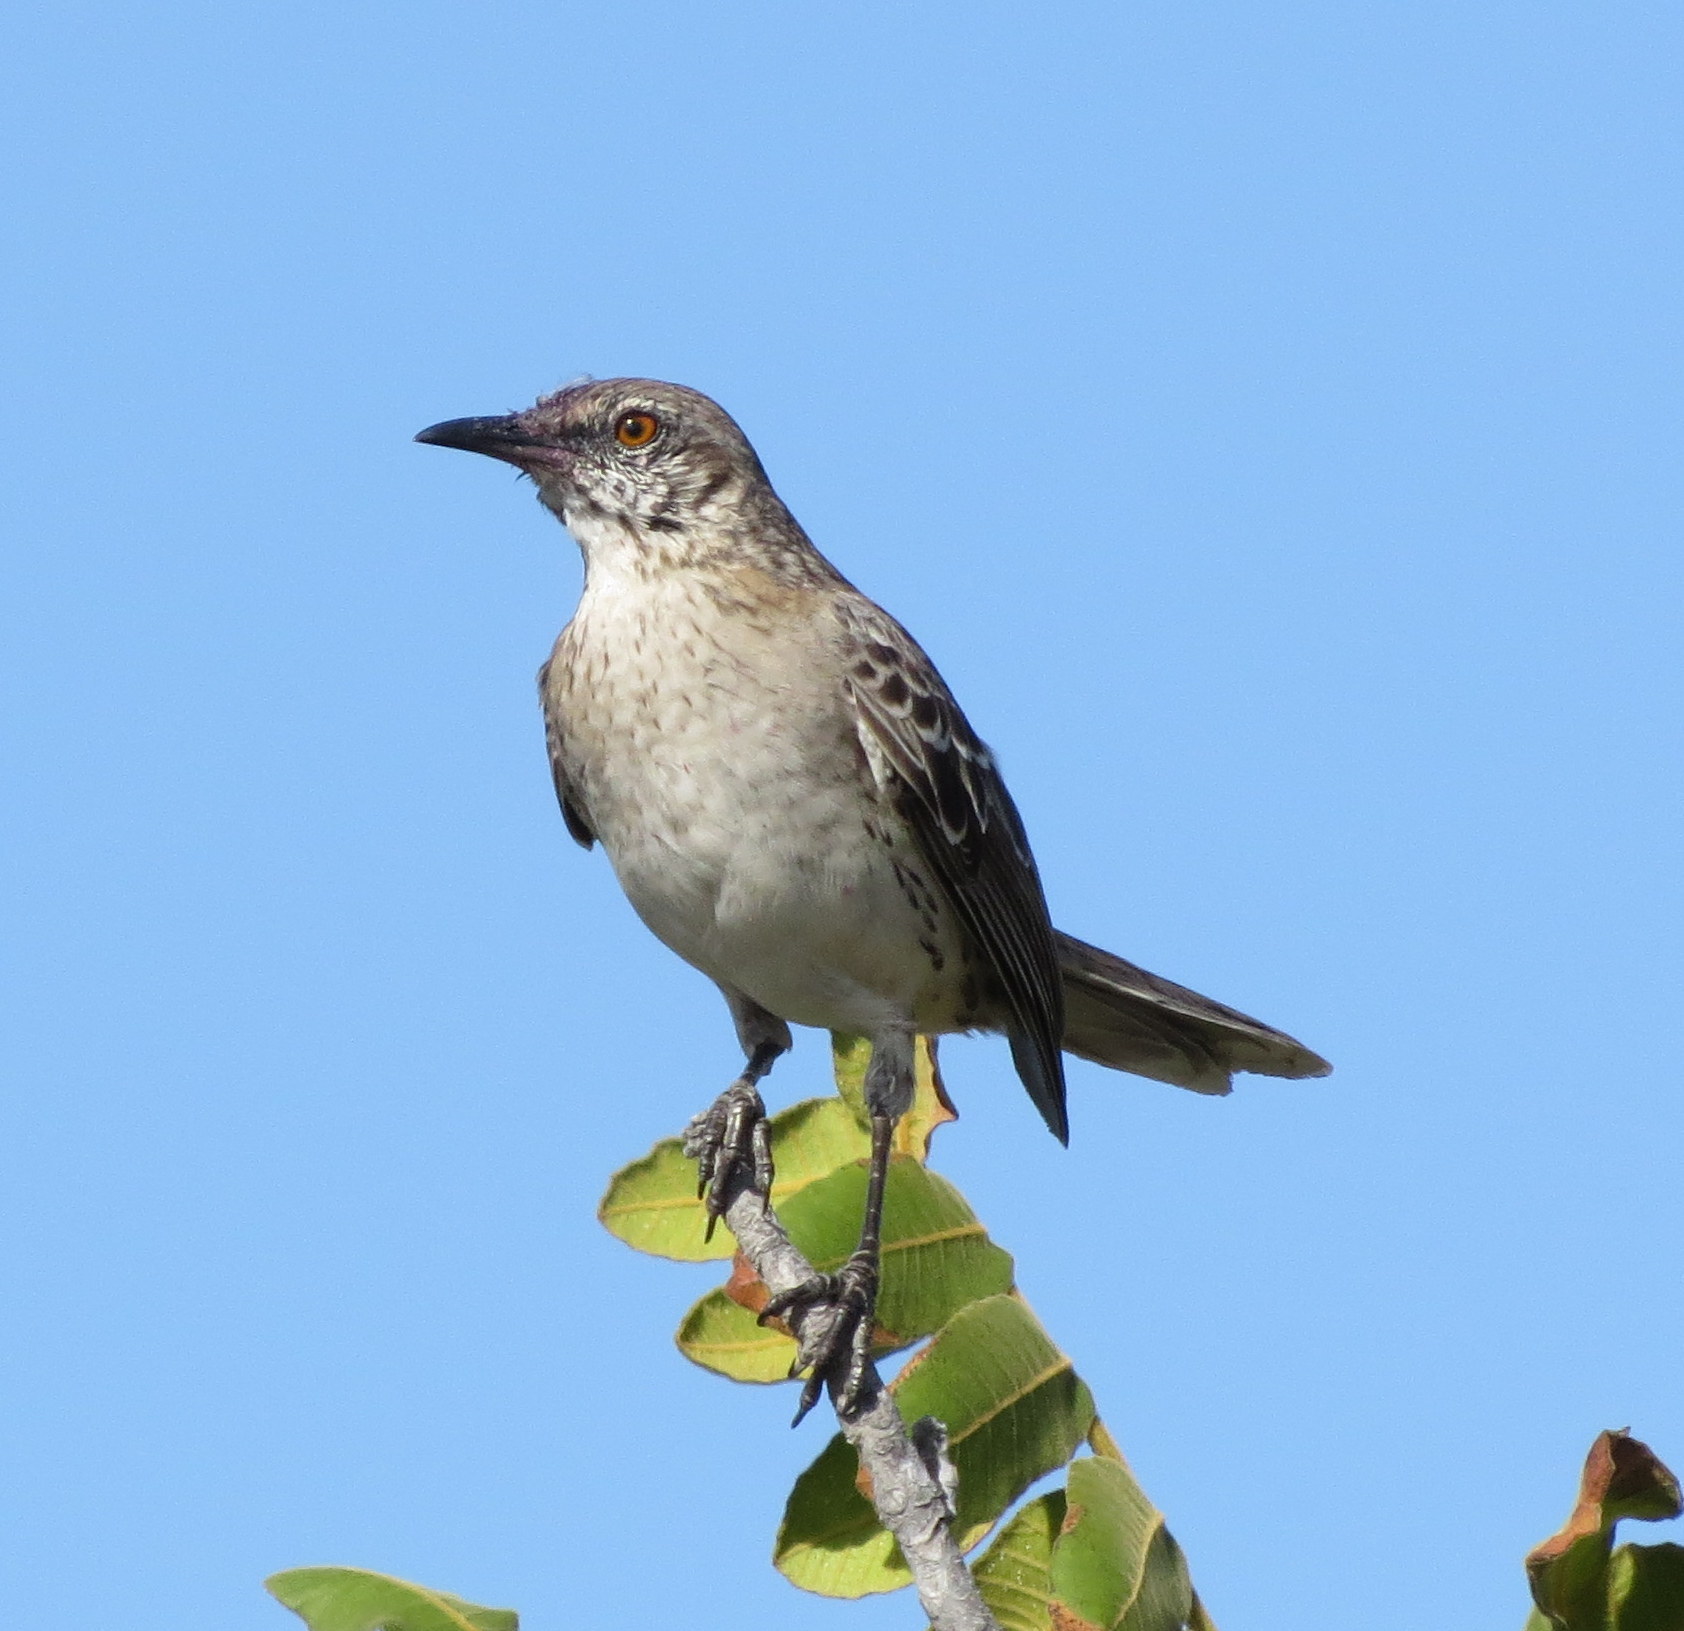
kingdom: Animalia
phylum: Chordata
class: Aves
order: Passeriformes
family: Mimidae
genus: Mimus
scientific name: Mimus gundlachii
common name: Bahama mockingbird
